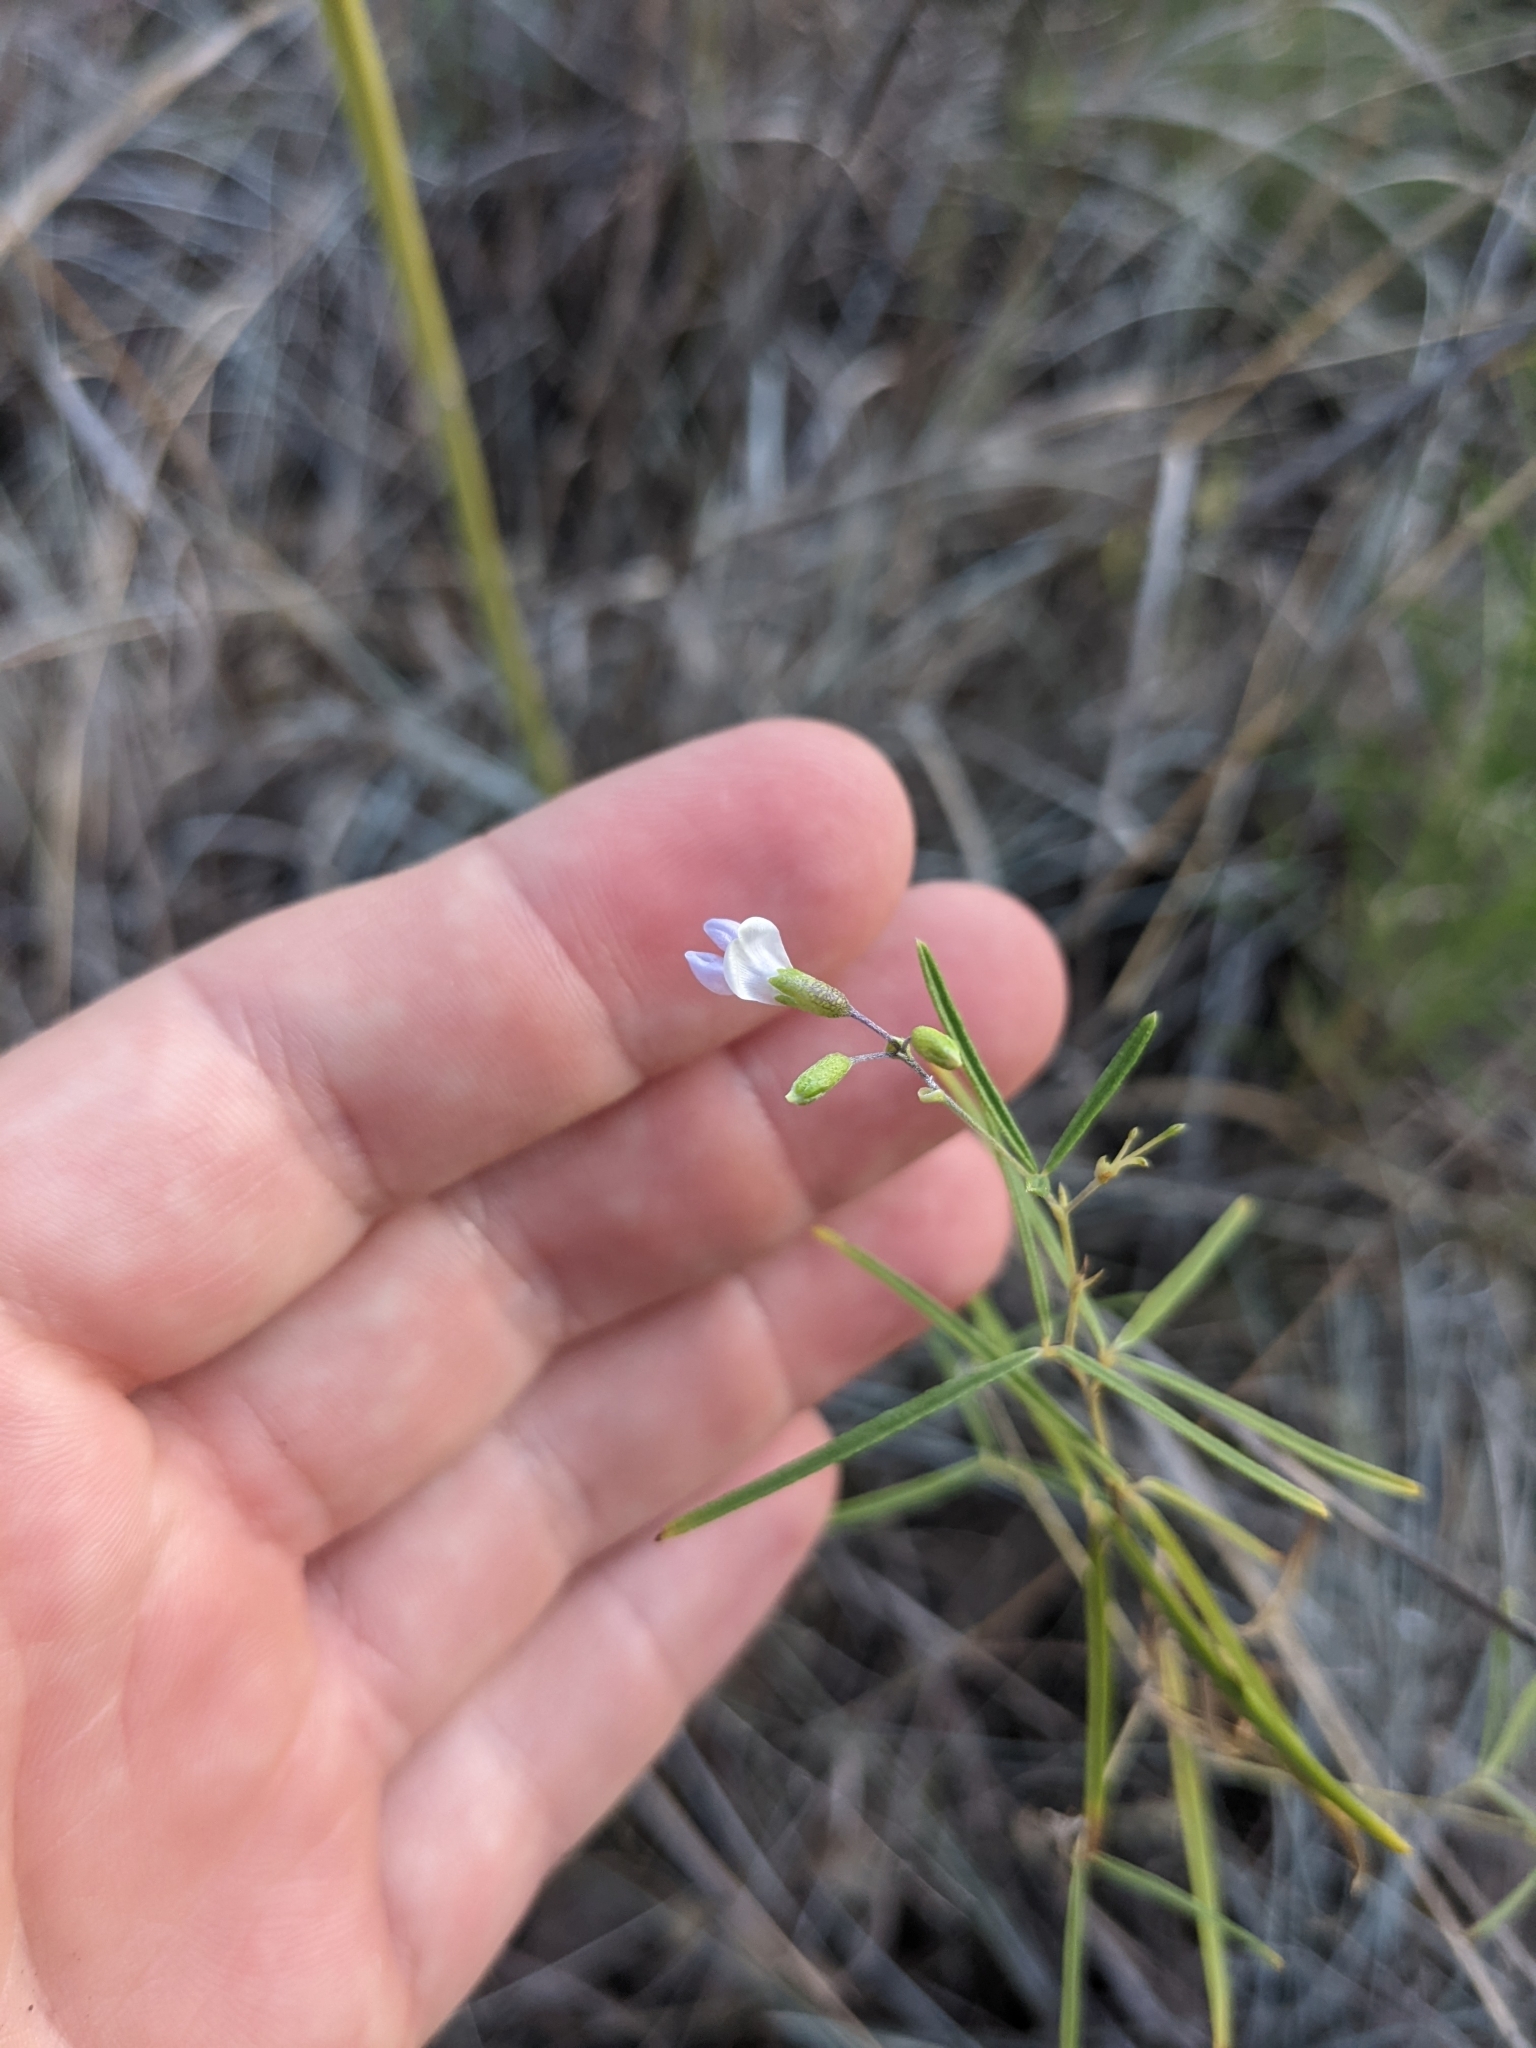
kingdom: Plantae
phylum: Tracheophyta
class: Magnoliopsida
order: Fabales
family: Fabaceae
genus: Pediomelum
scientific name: Pediomelum linearifolium
